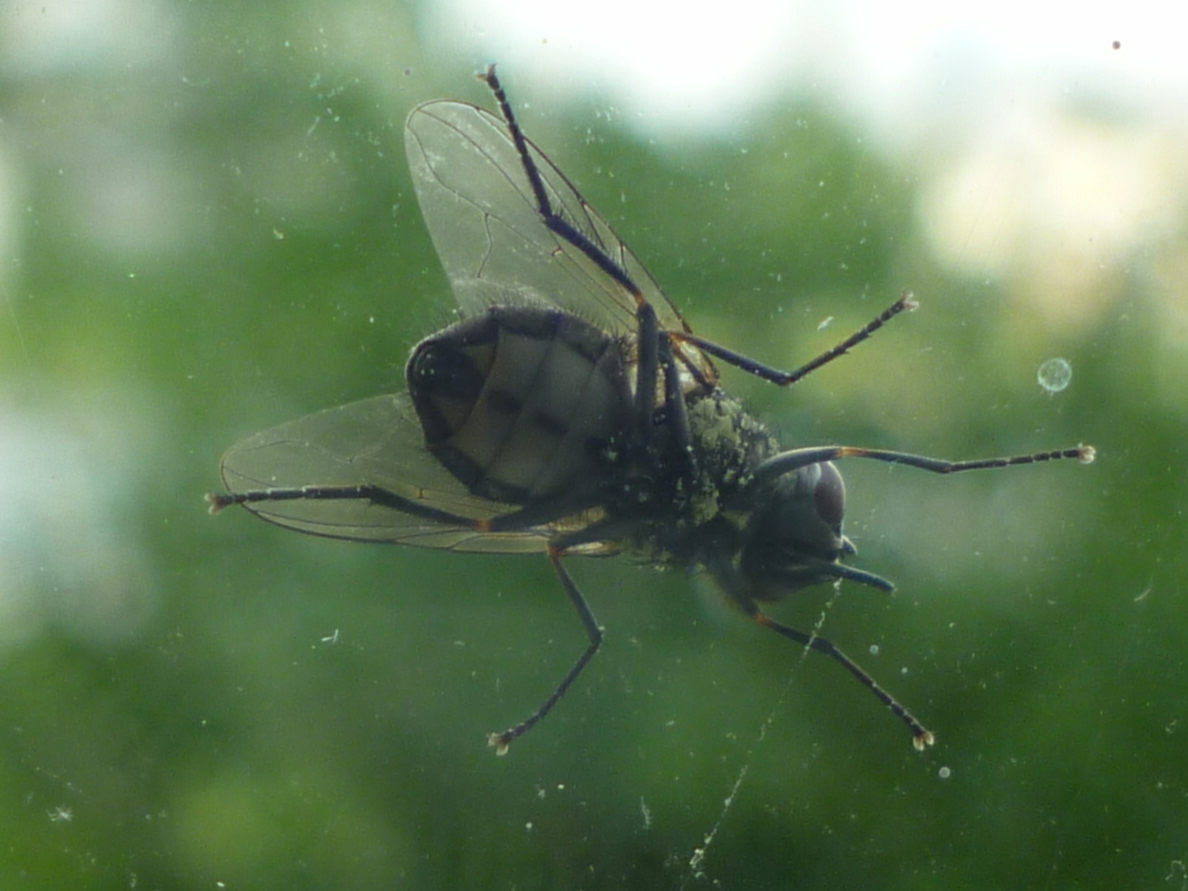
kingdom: Animalia
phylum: Arthropoda
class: Insecta
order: Diptera
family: Muscidae
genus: Stomoxys
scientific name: Stomoxys calcitrans
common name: Stable fly
